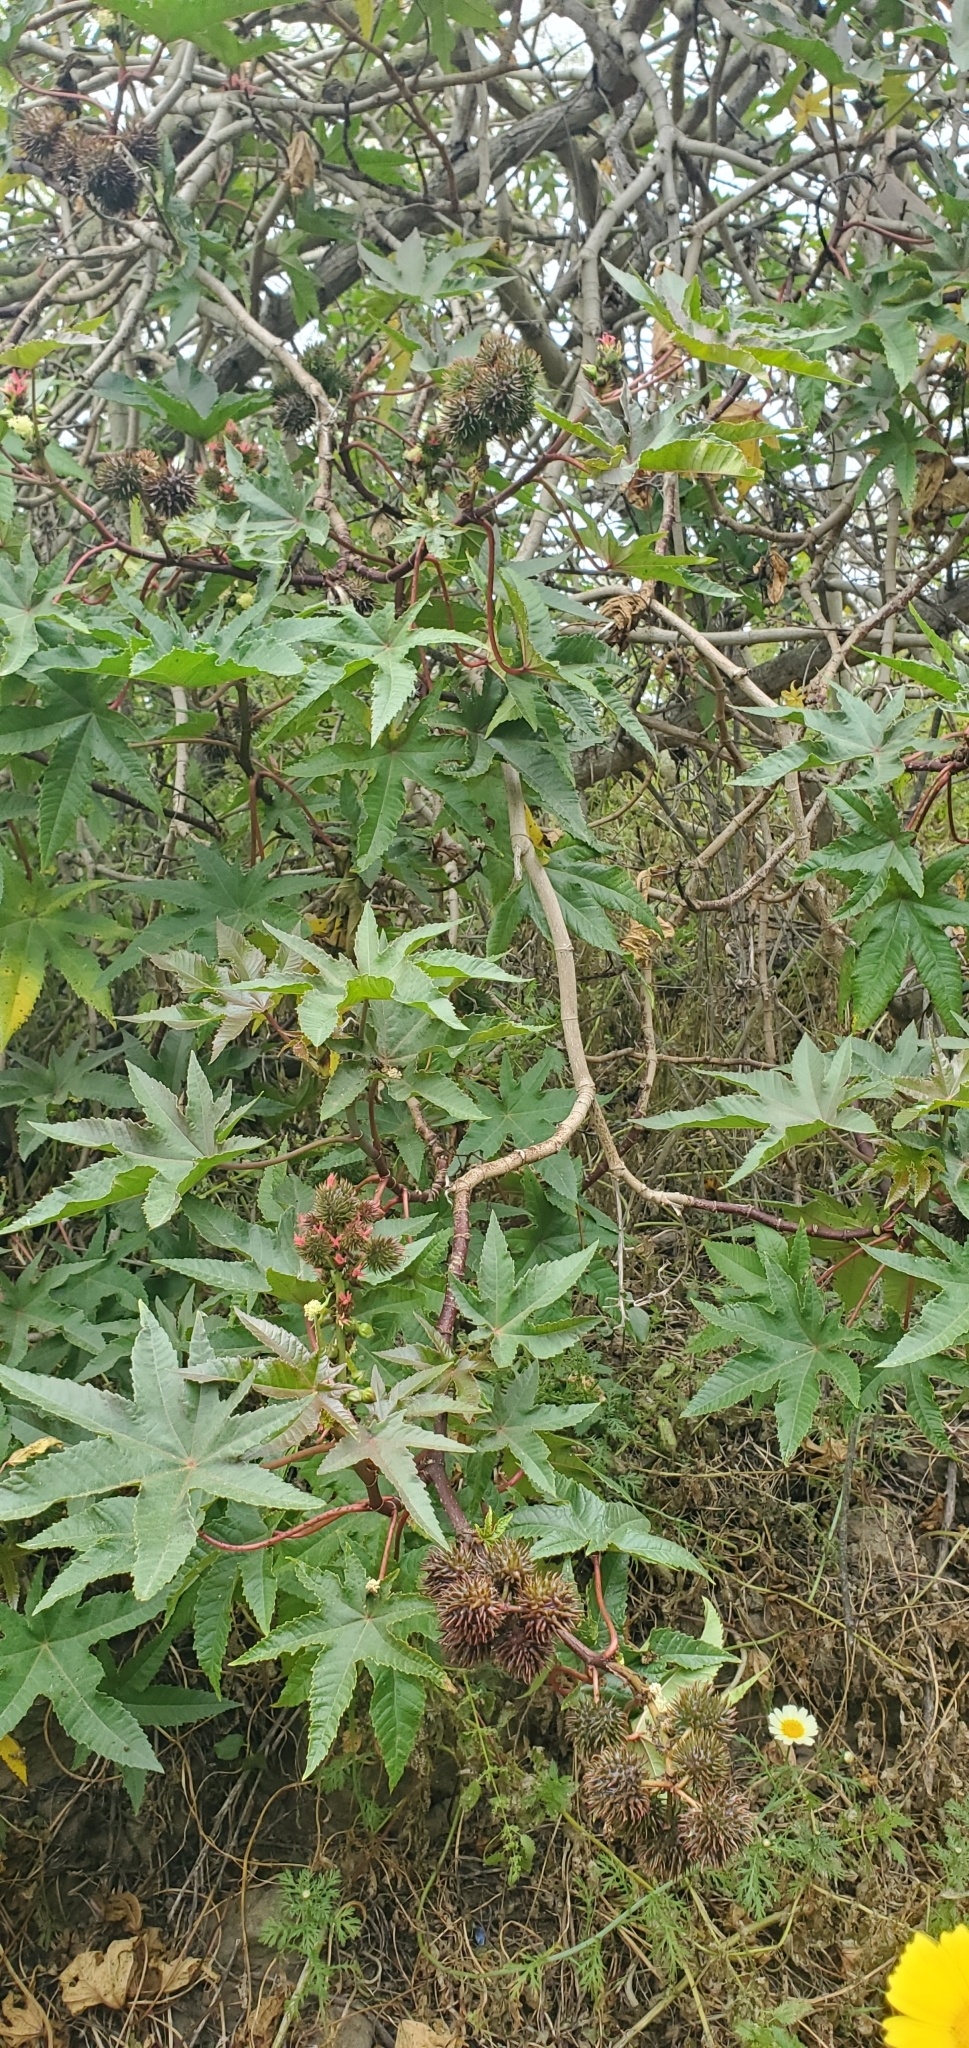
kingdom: Plantae
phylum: Tracheophyta
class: Magnoliopsida
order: Malpighiales
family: Euphorbiaceae
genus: Ricinus
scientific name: Ricinus communis
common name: Castor-oil-plant
